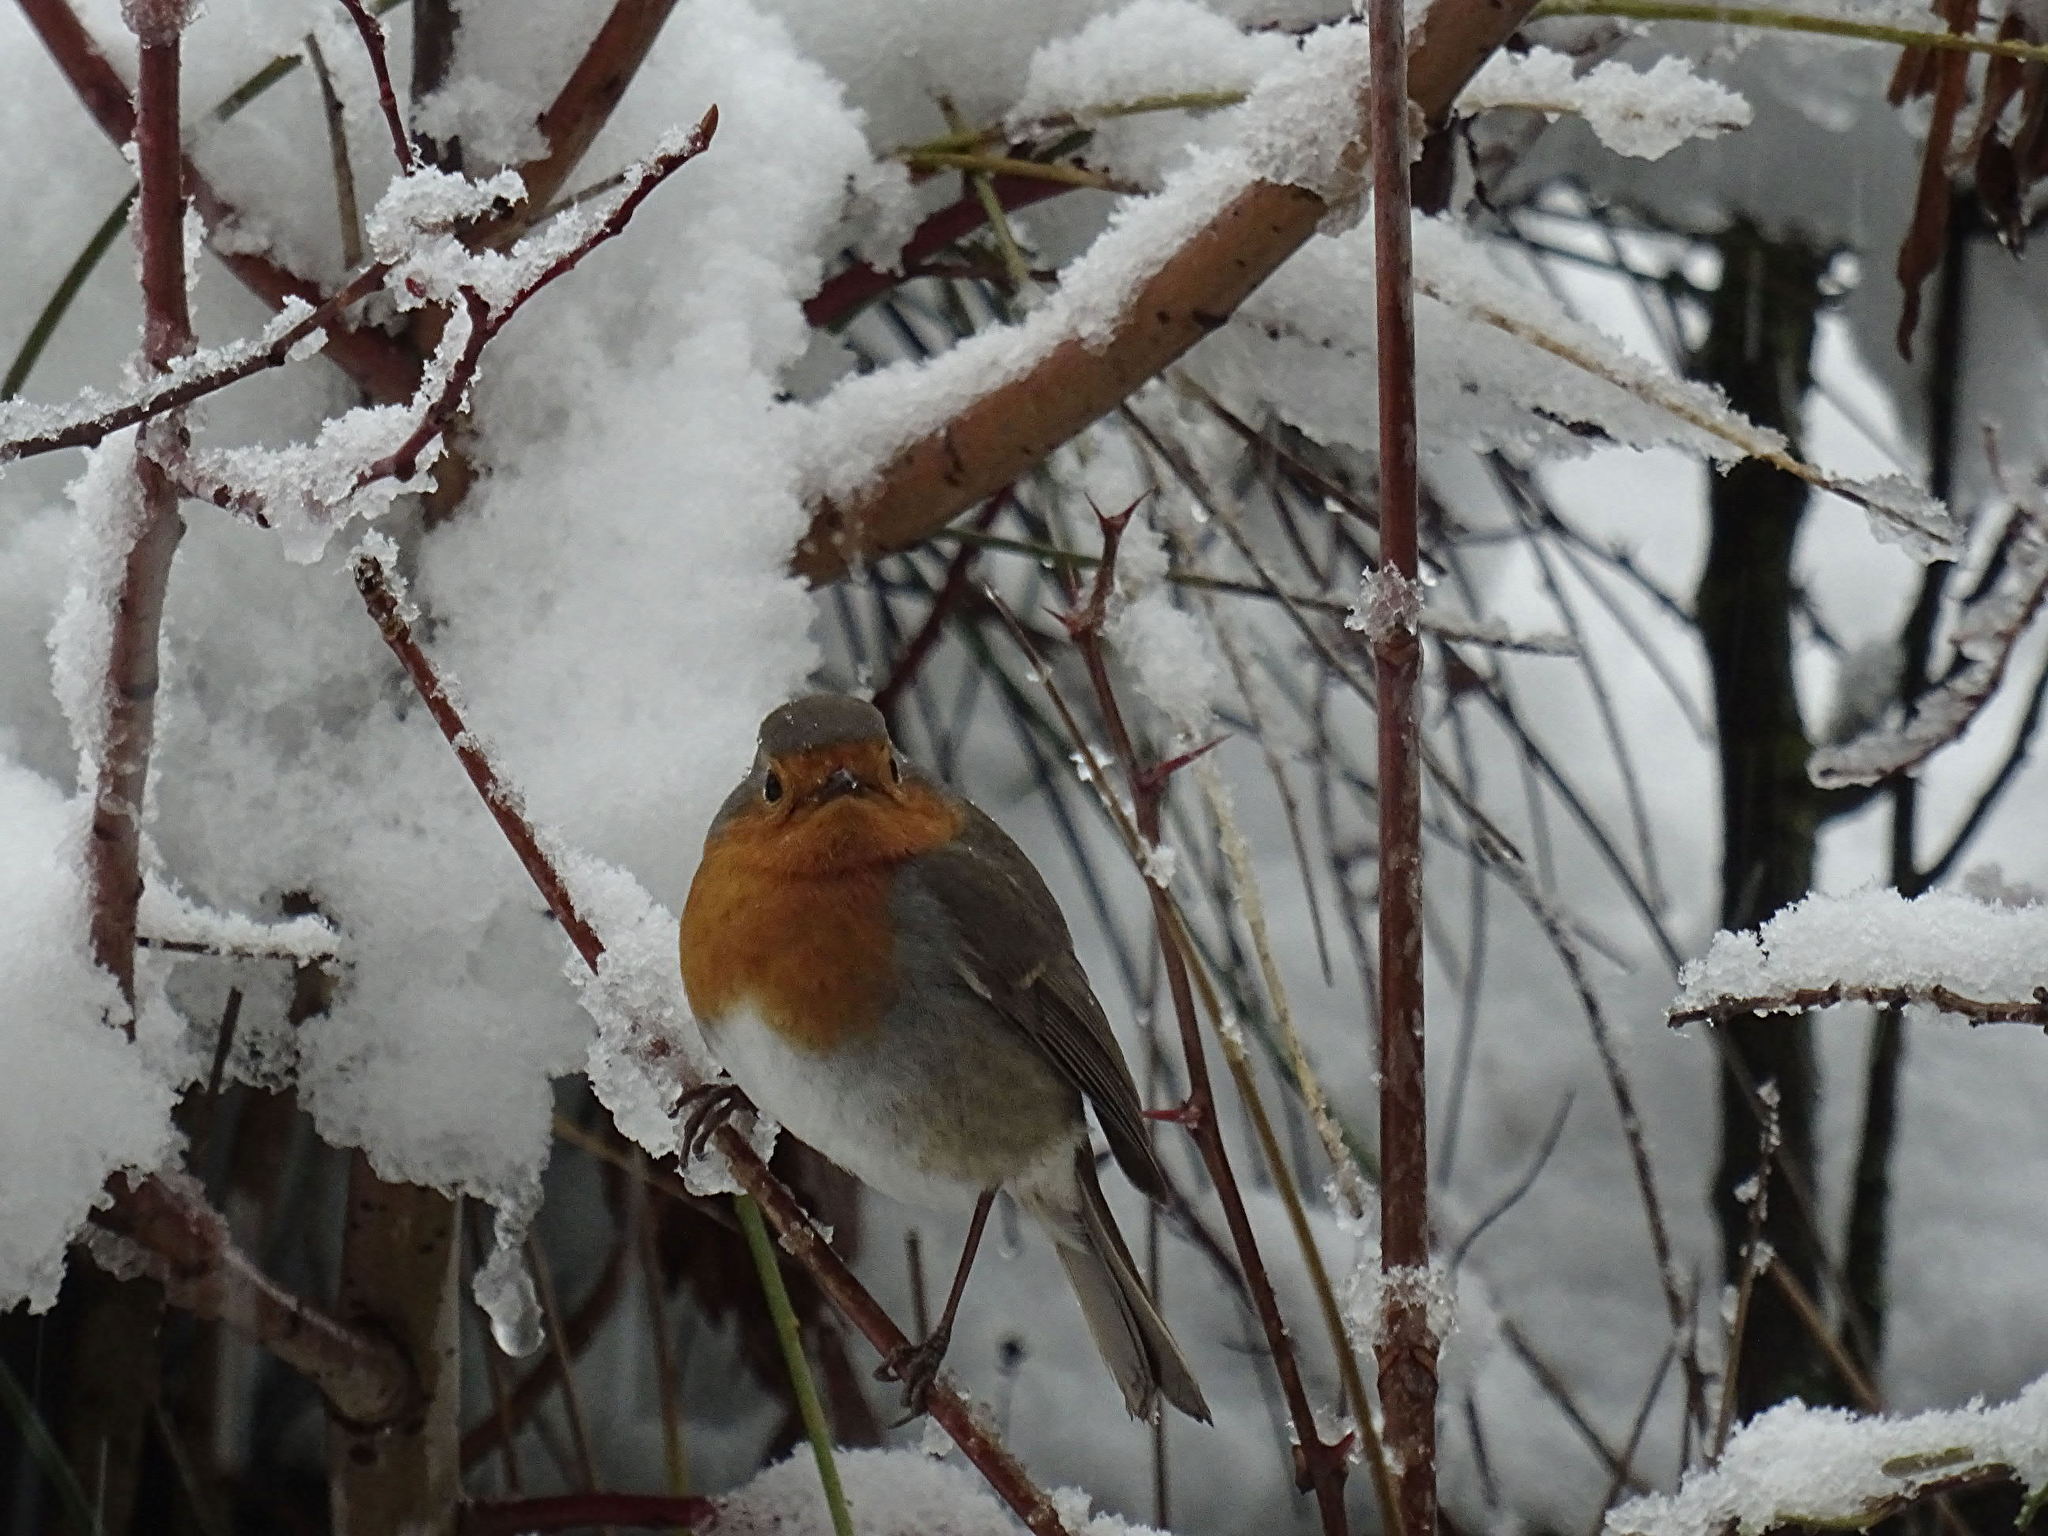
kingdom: Animalia
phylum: Chordata
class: Aves
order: Passeriformes
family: Muscicapidae
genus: Erithacus
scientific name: Erithacus rubecula
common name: European robin
